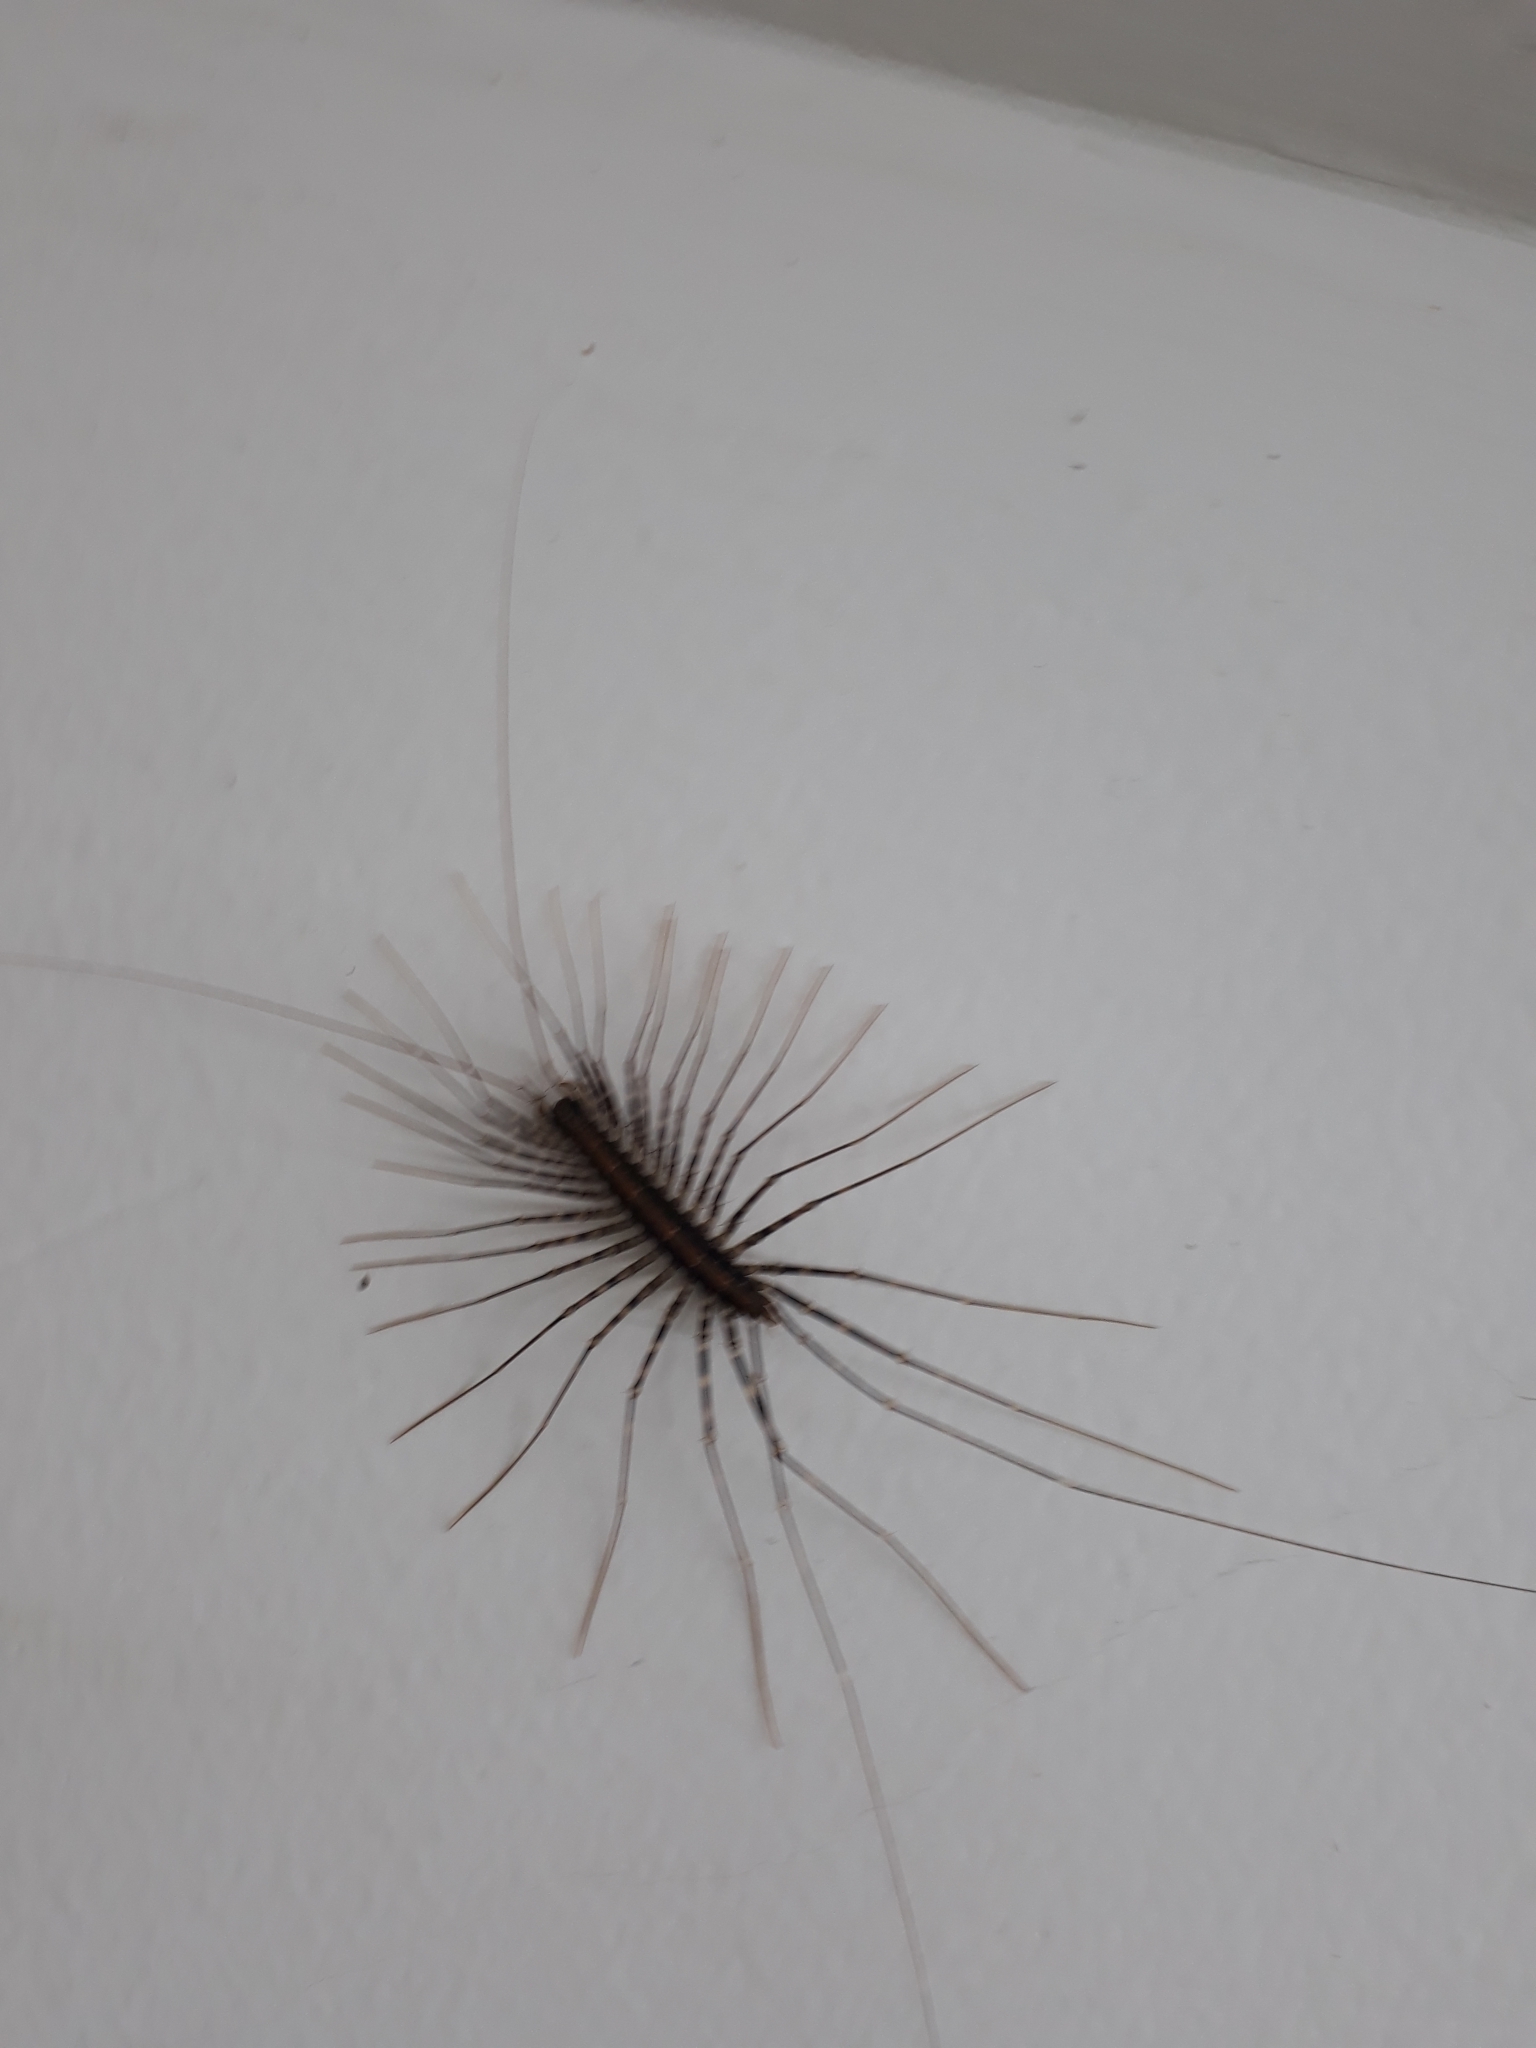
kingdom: Animalia
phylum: Arthropoda
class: Chilopoda
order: Scutigeromorpha
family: Pselliodidae
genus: Sphendononema
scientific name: Sphendononema guildingii
